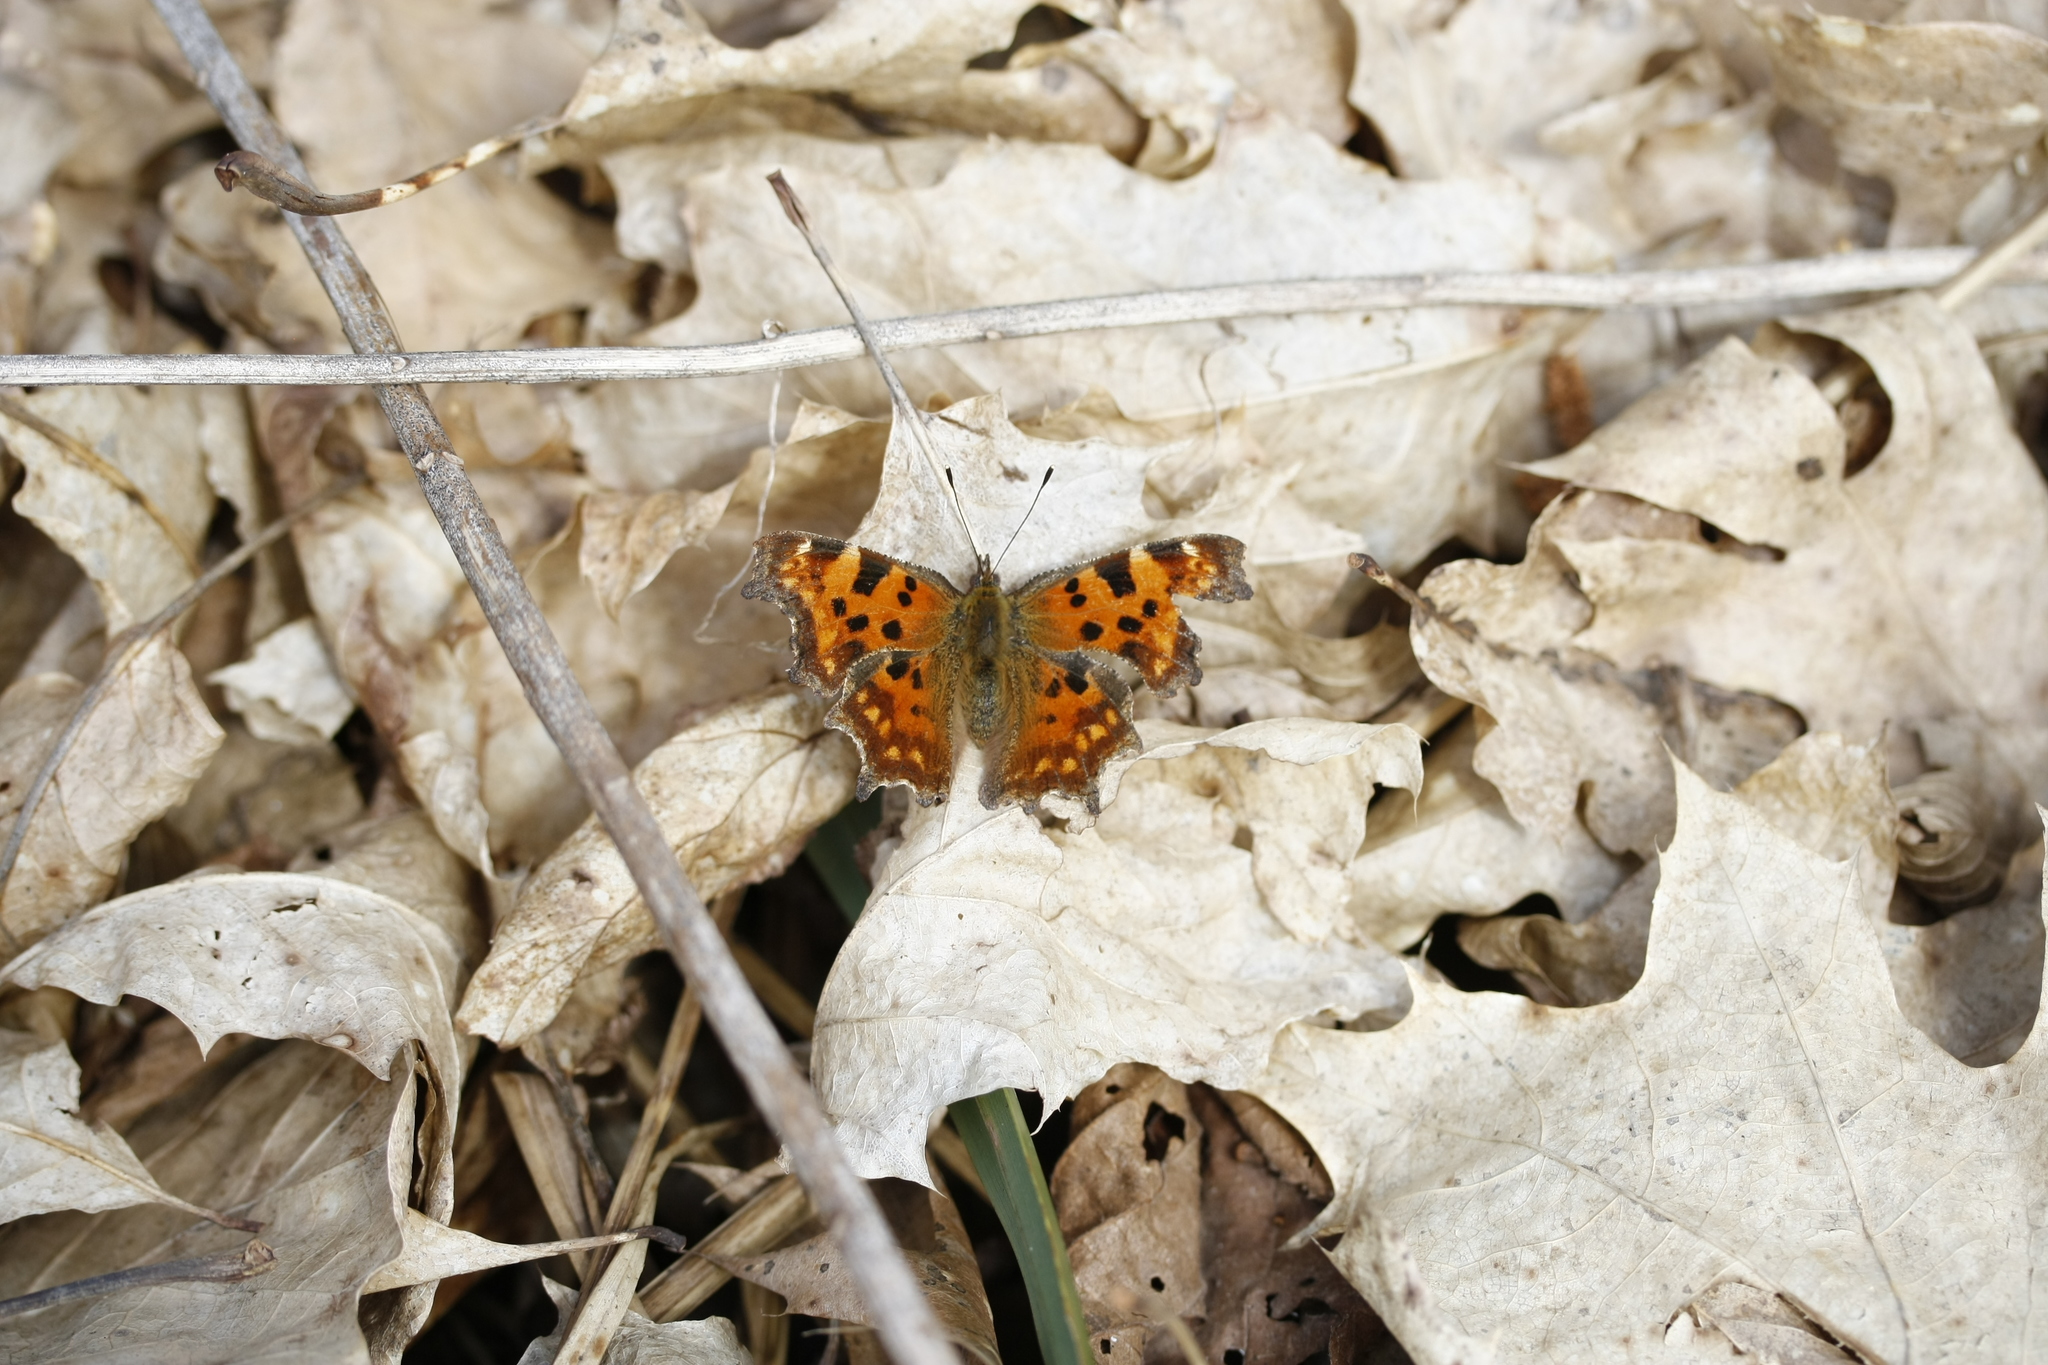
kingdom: Animalia
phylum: Arthropoda
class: Insecta
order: Lepidoptera
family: Nymphalidae
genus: Polygonia
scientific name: Polygonia c-album
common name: Comma
